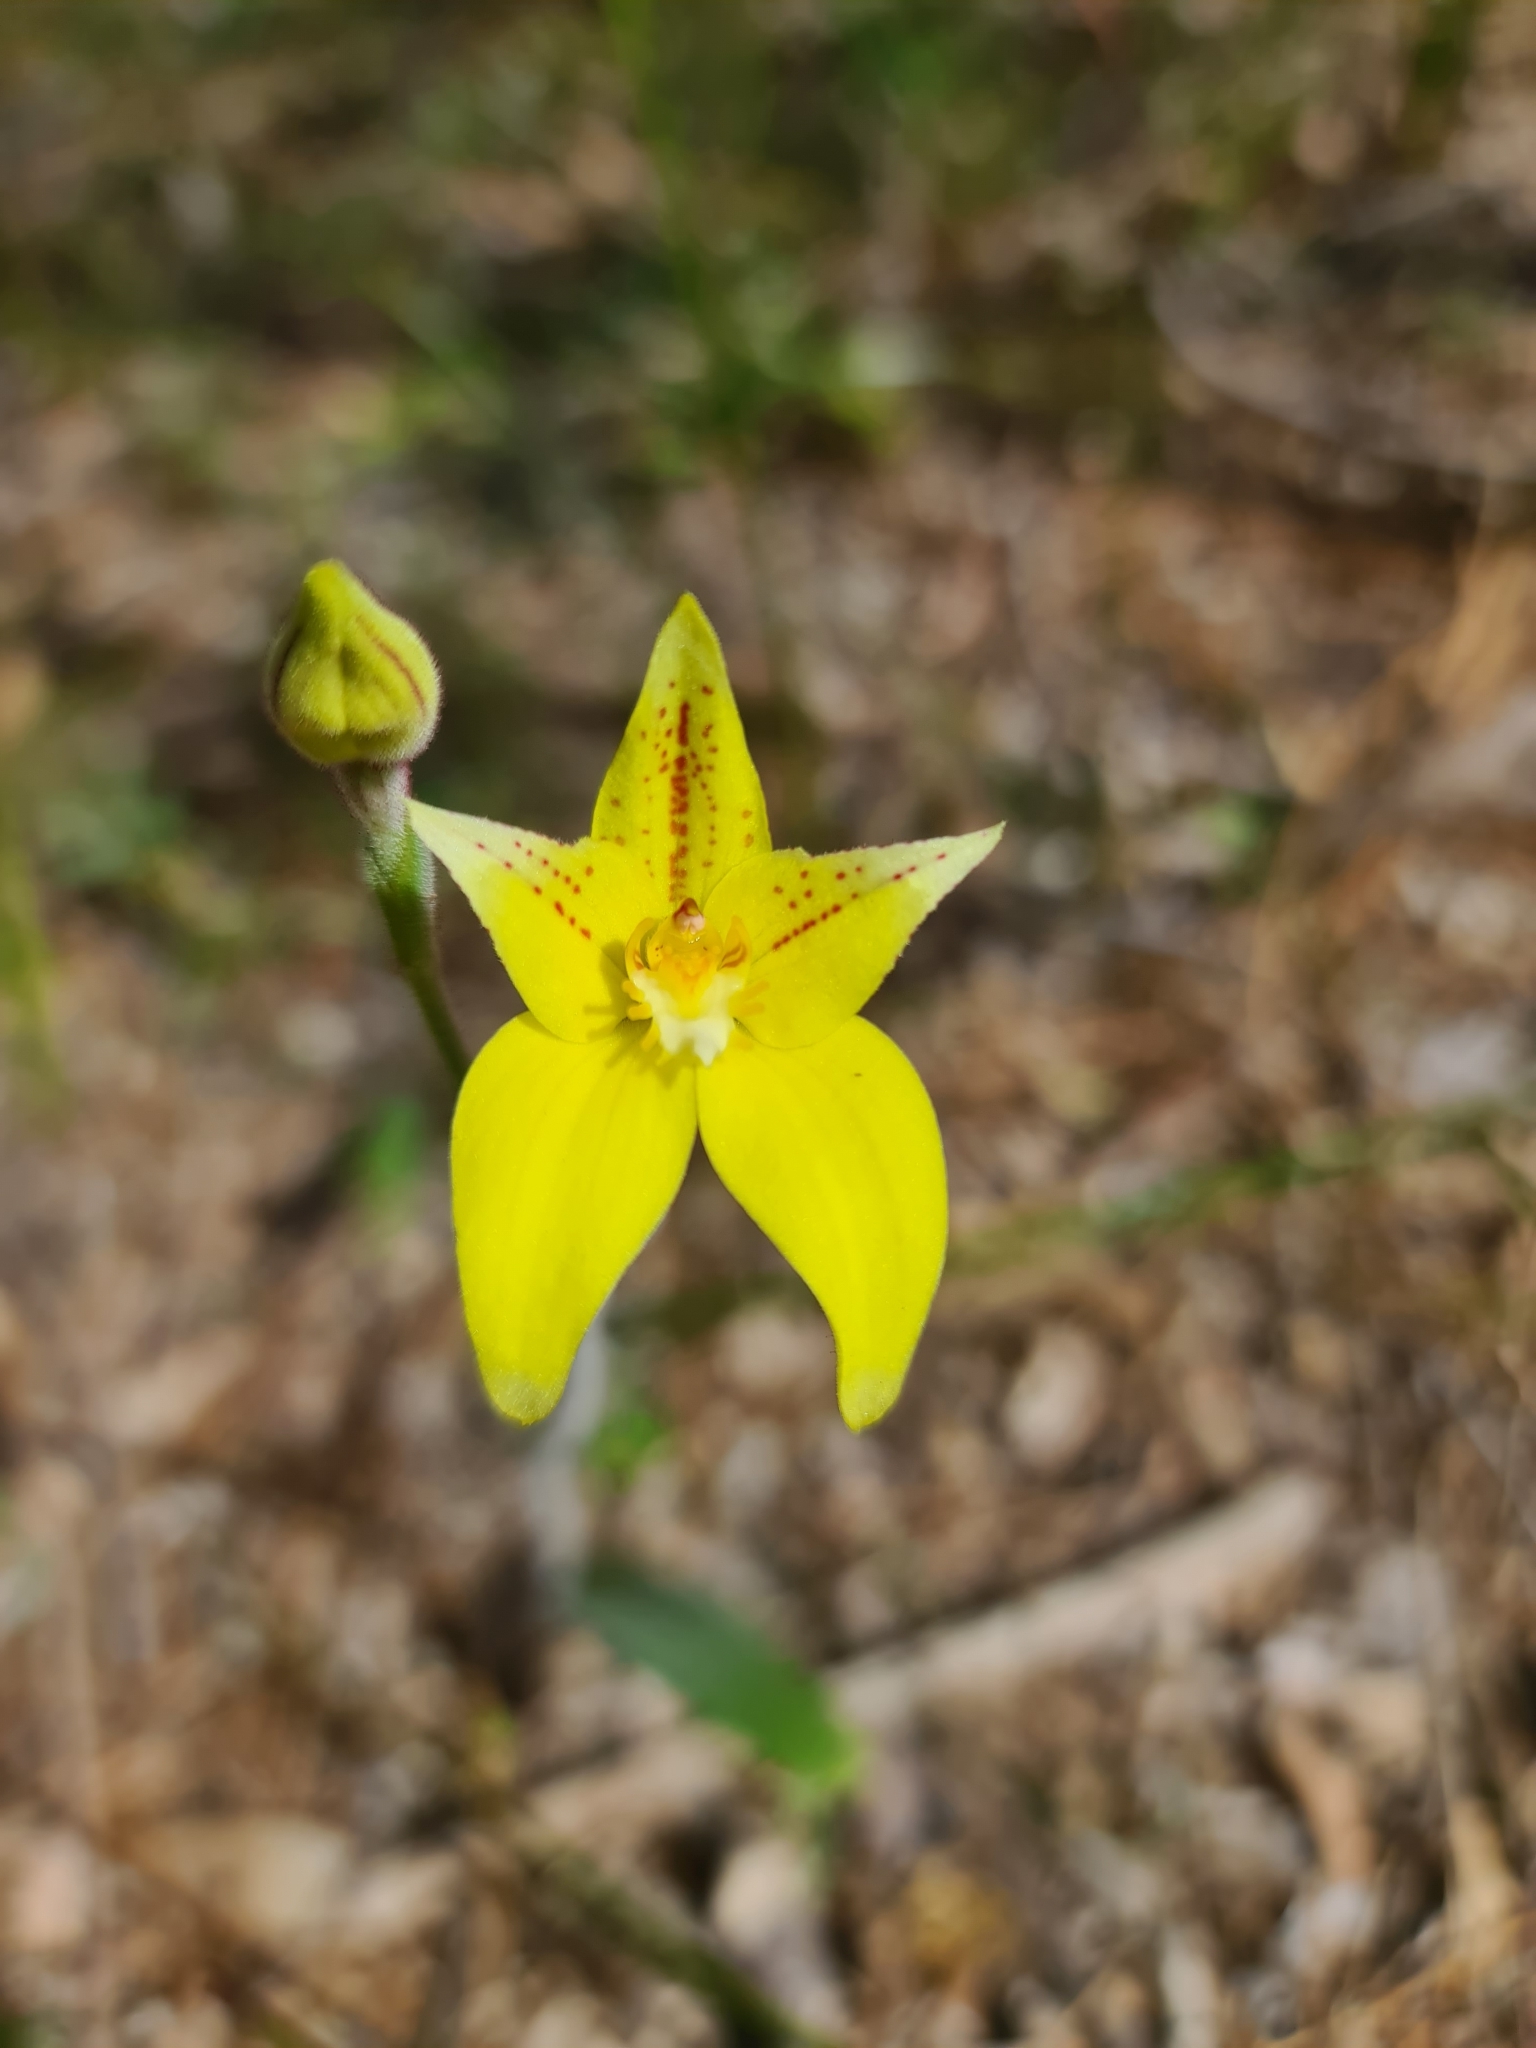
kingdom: Plantae
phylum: Tracheophyta
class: Liliopsida
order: Asparagales
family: Orchidaceae
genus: Caladenia
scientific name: Caladenia flava
